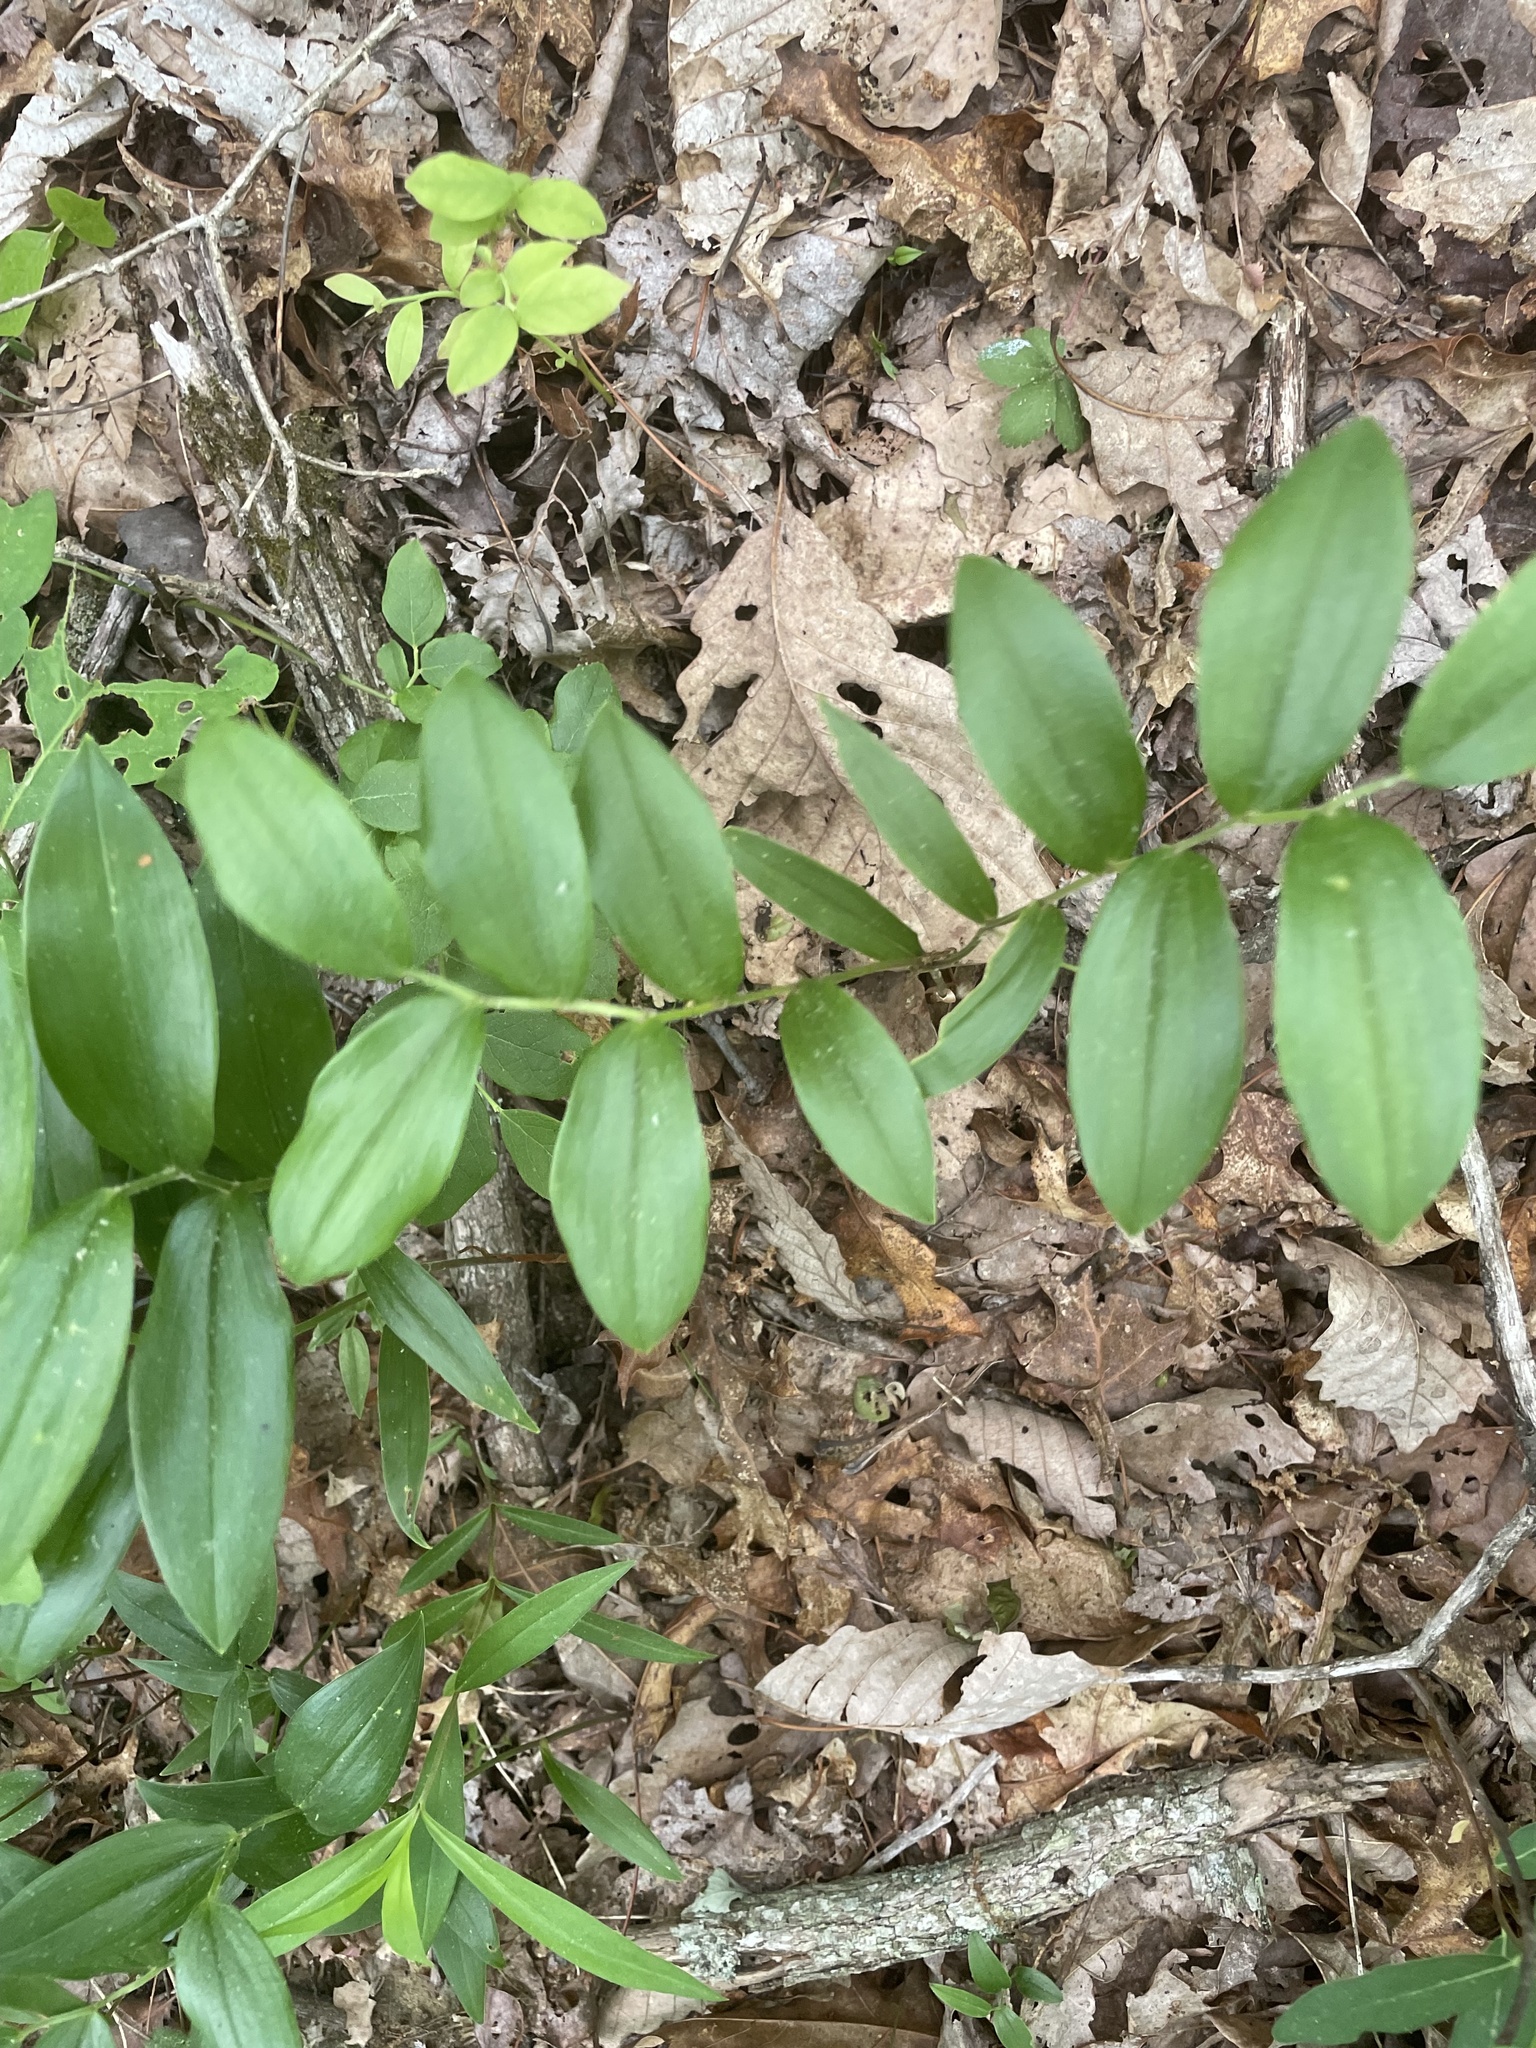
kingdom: Plantae
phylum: Tracheophyta
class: Liliopsida
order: Liliales
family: Colchicaceae
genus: Uvularia
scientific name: Uvularia puberula
